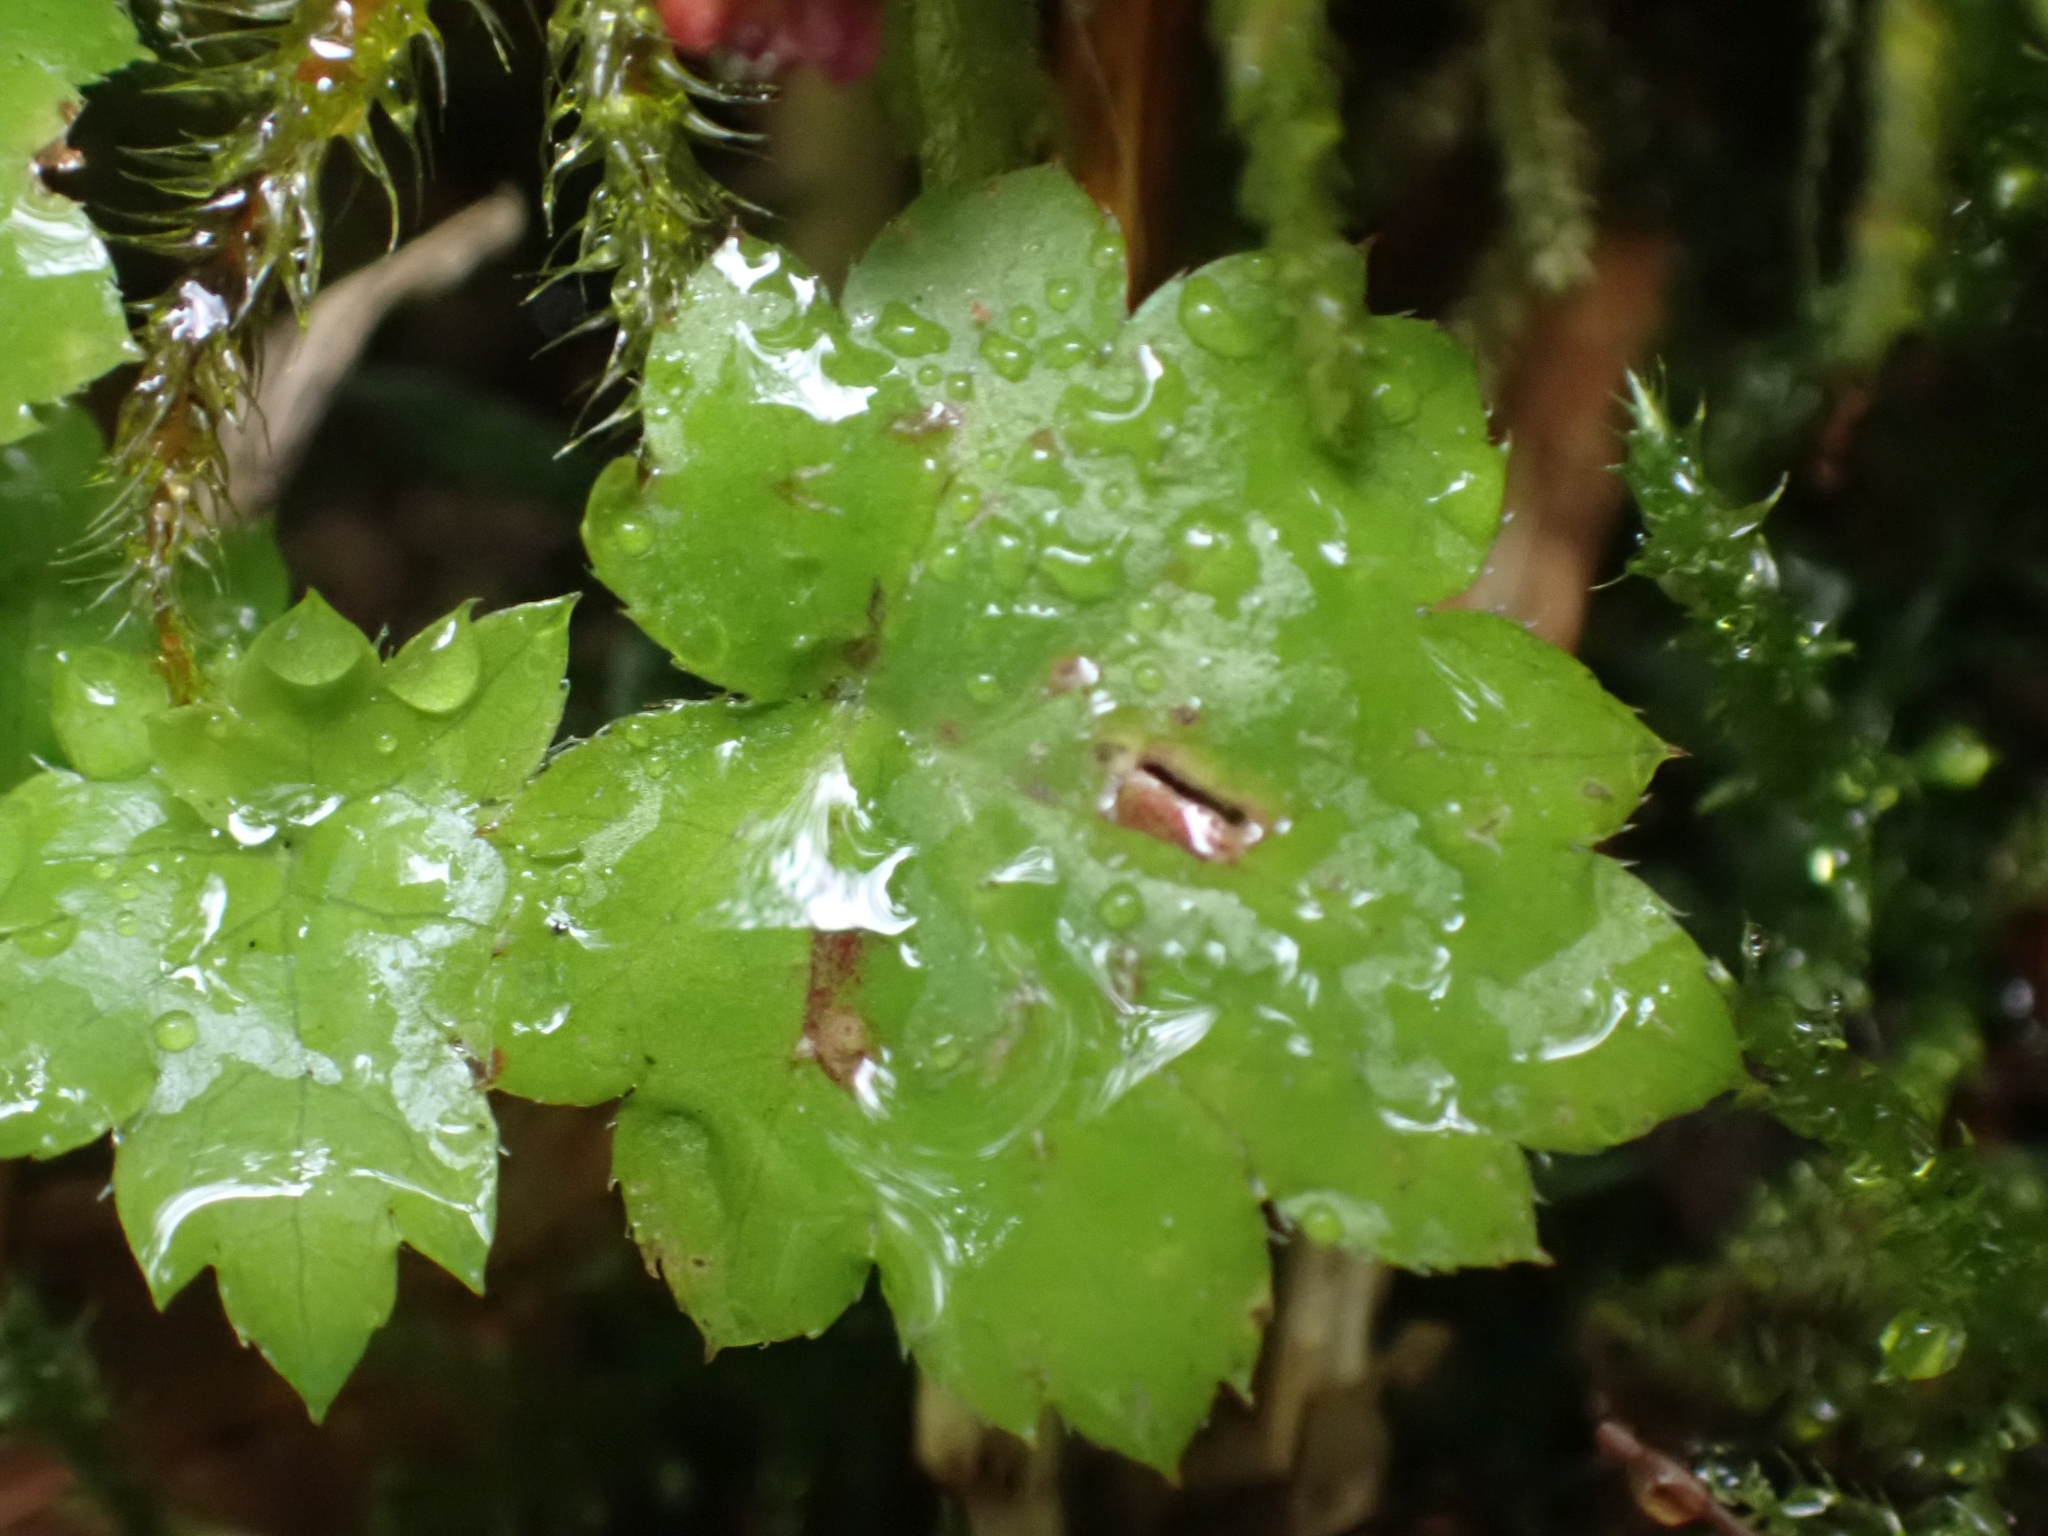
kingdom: Plantae
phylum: Tracheophyta
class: Magnoliopsida
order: Saxifragales
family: Saxifragaceae
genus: Boykinia
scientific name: Boykinia occidentalis
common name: Coast boykinia
